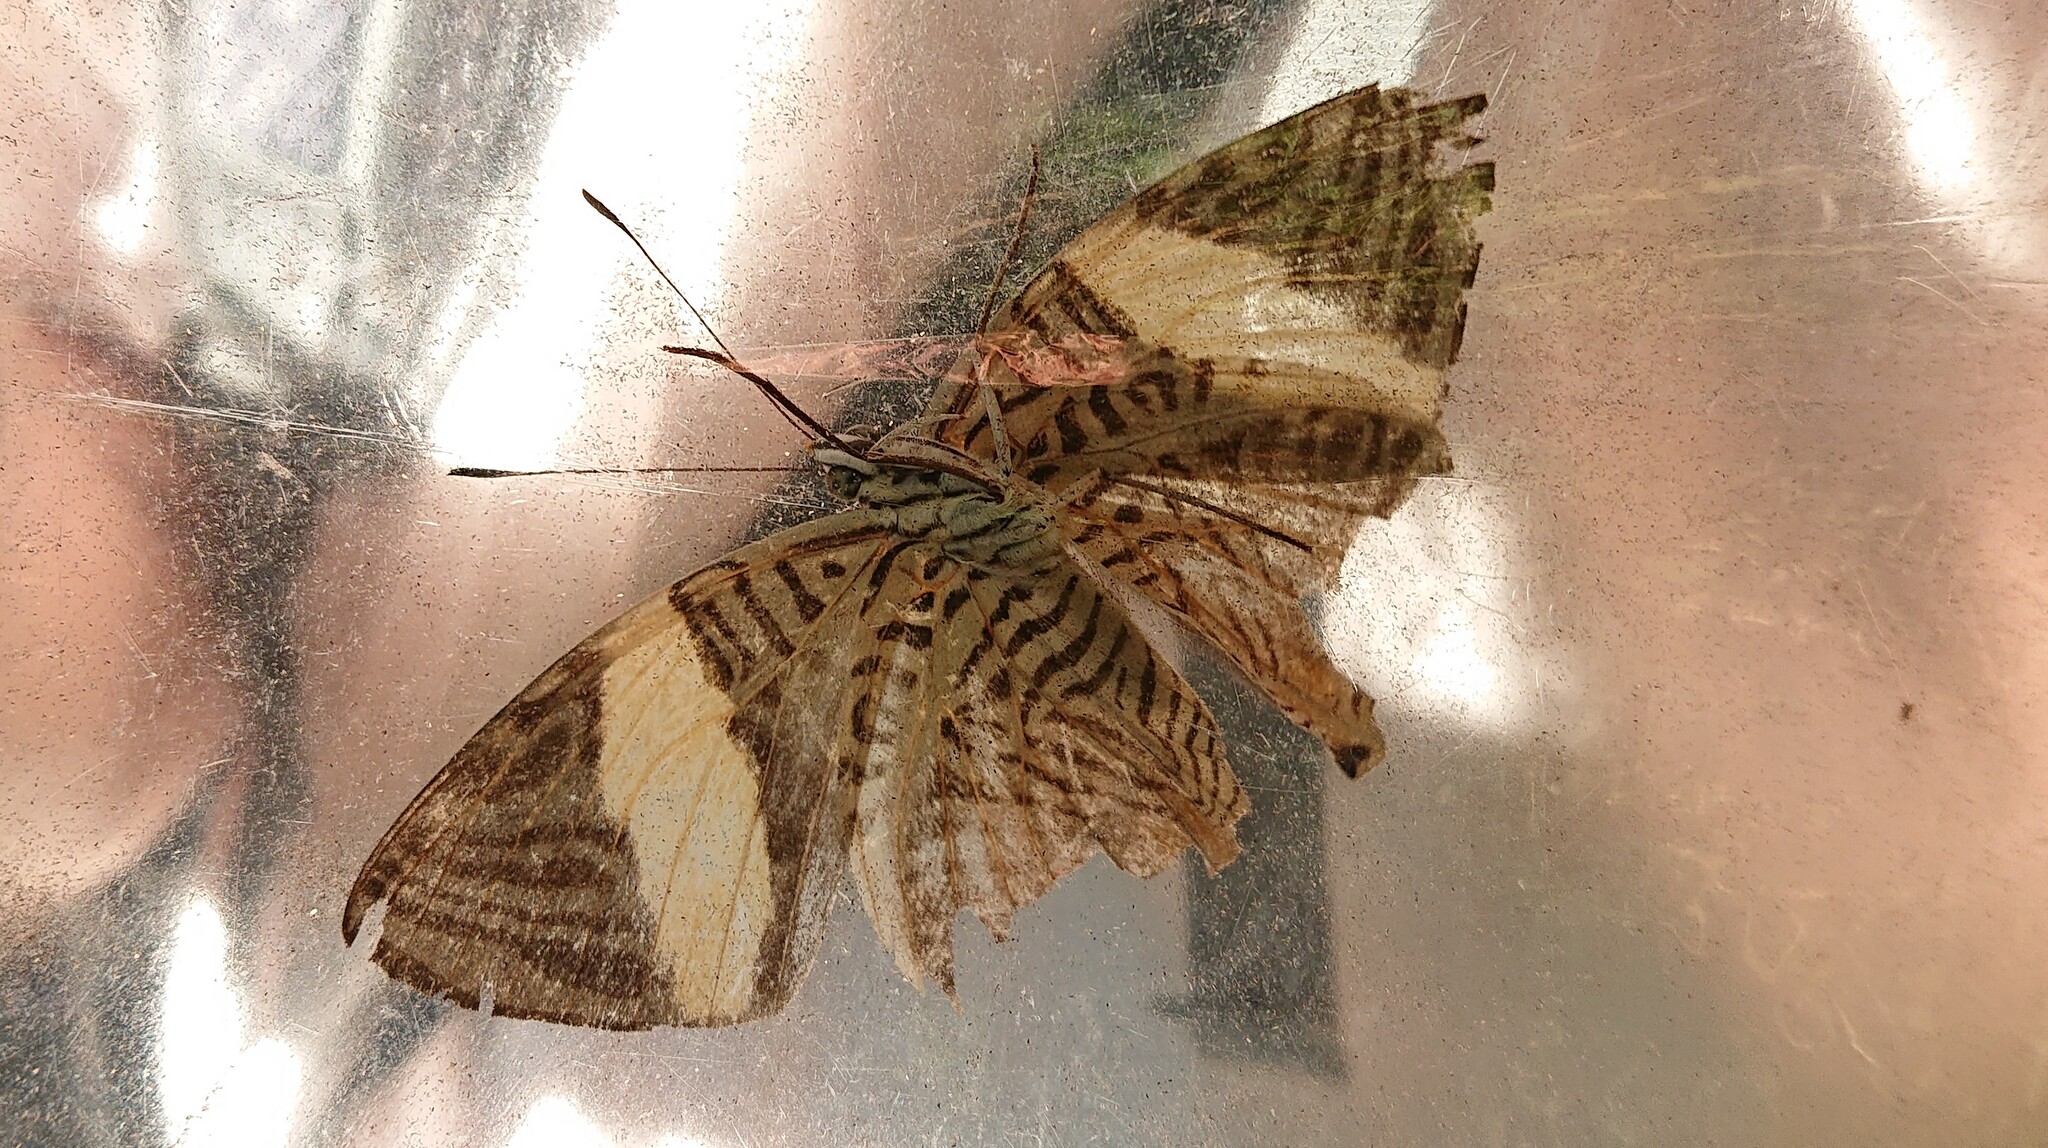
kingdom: Animalia
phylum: Arthropoda
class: Insecta
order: Lepidoptera
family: Nymphalidae
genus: Colobura
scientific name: Colobura dirce
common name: Dirce beauty
